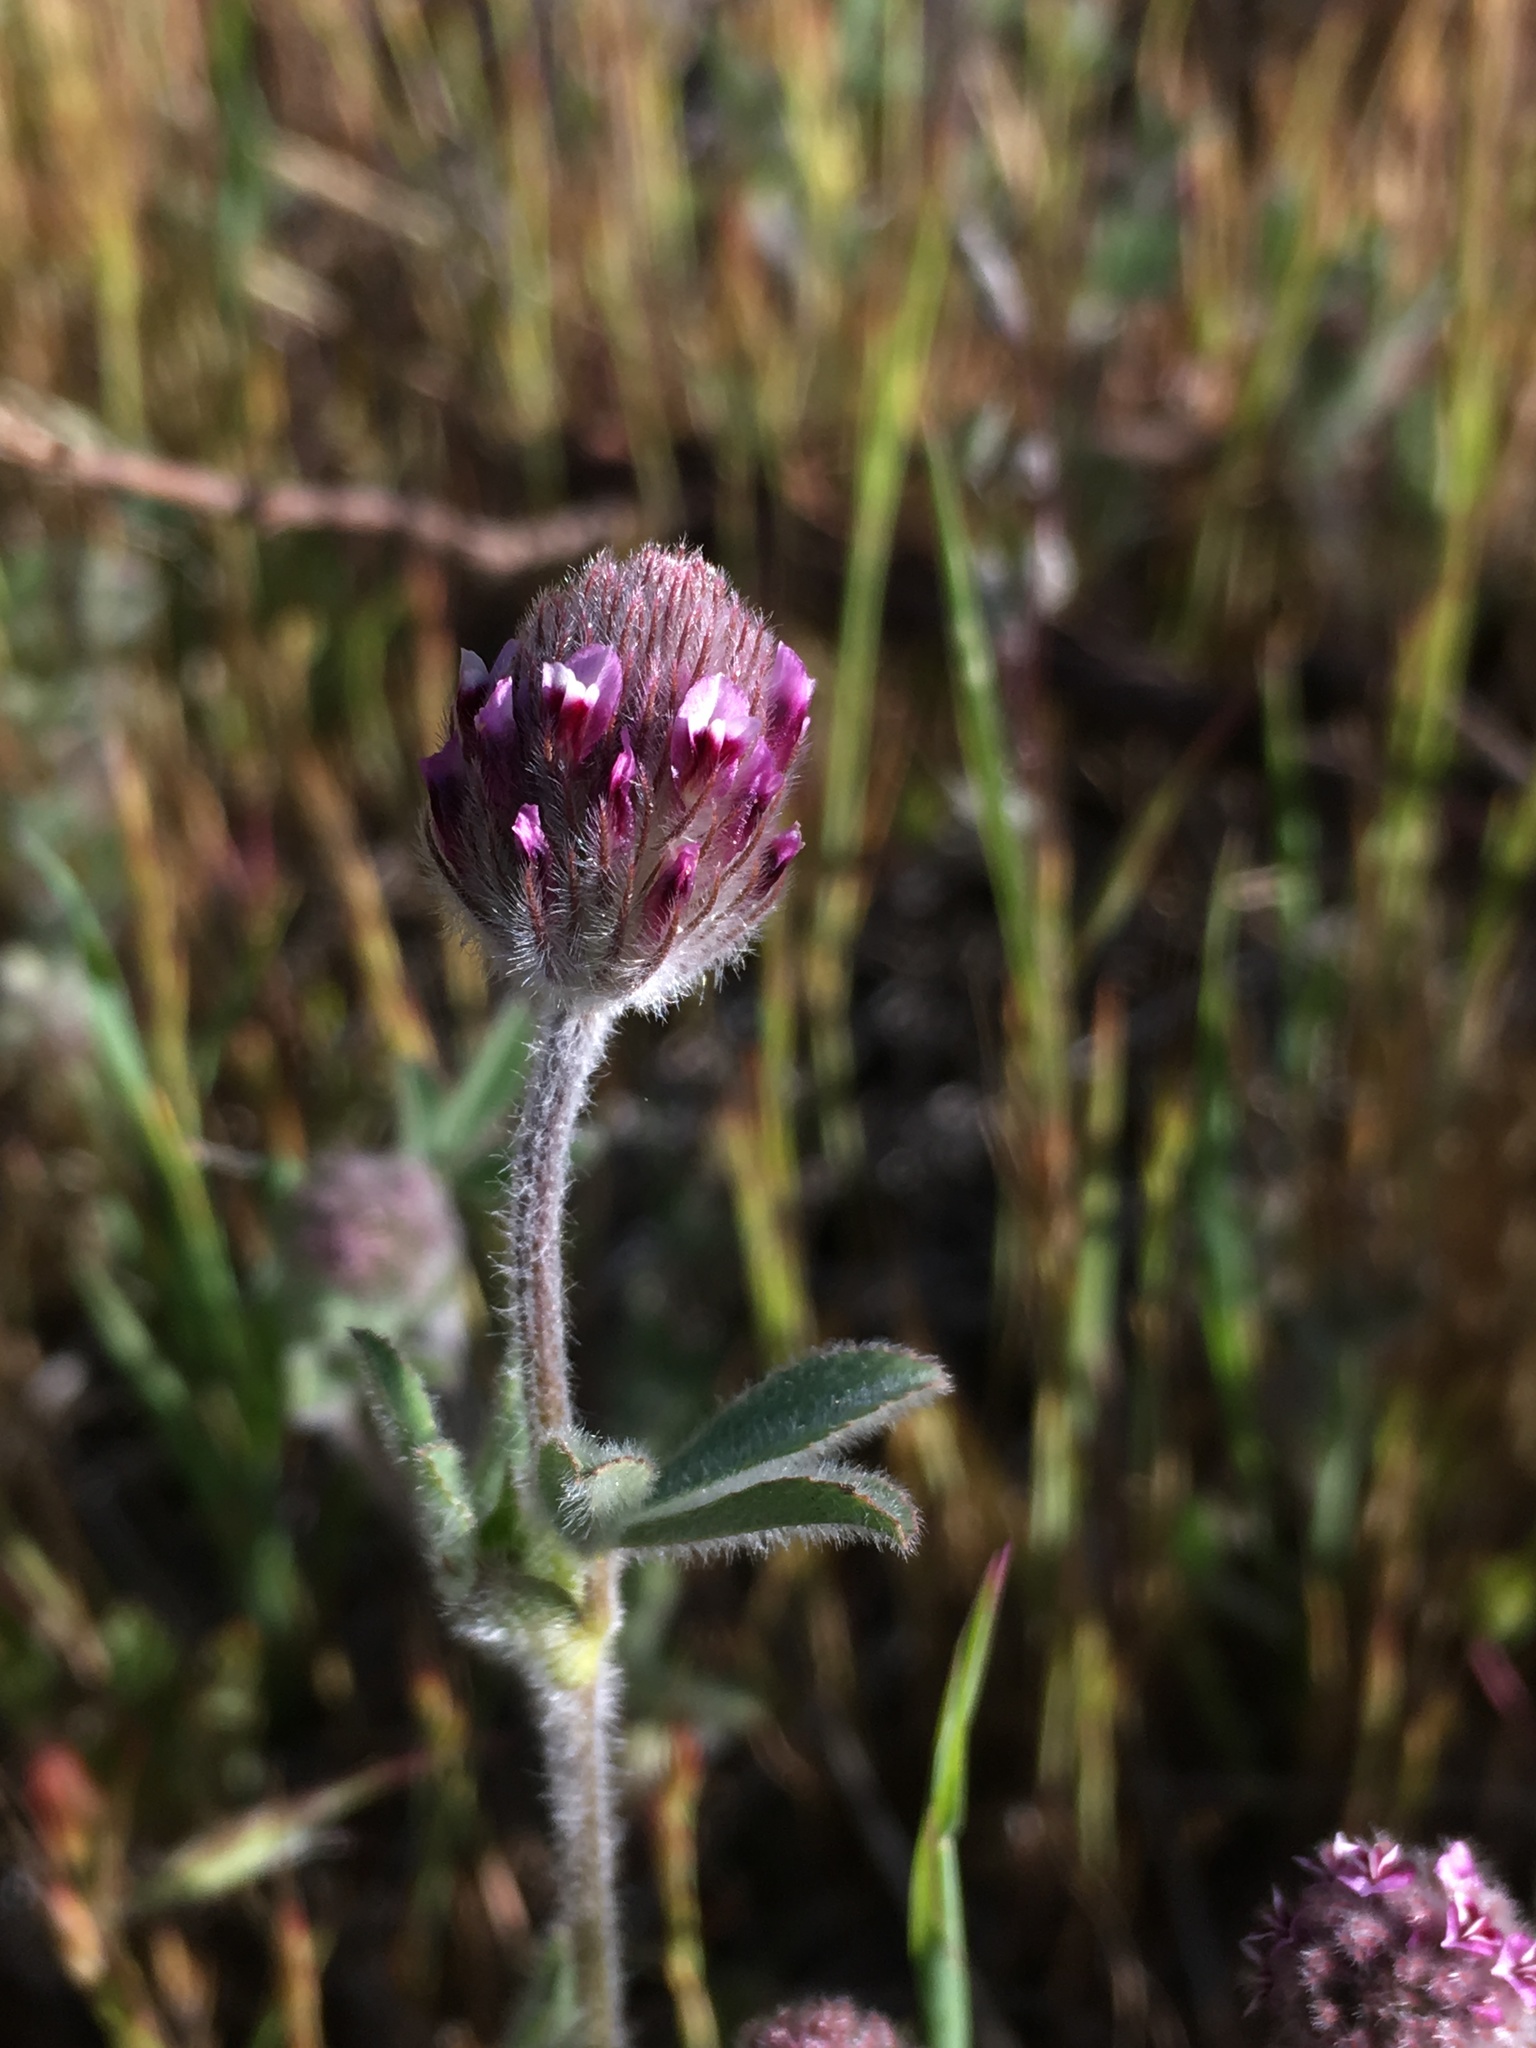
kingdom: Plantae
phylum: Tracheophyta
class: Magnoliopsida
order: Fabales
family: Fabaceae
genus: Trifolium
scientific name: Trifolium albopurpureum
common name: Rancheria clover
